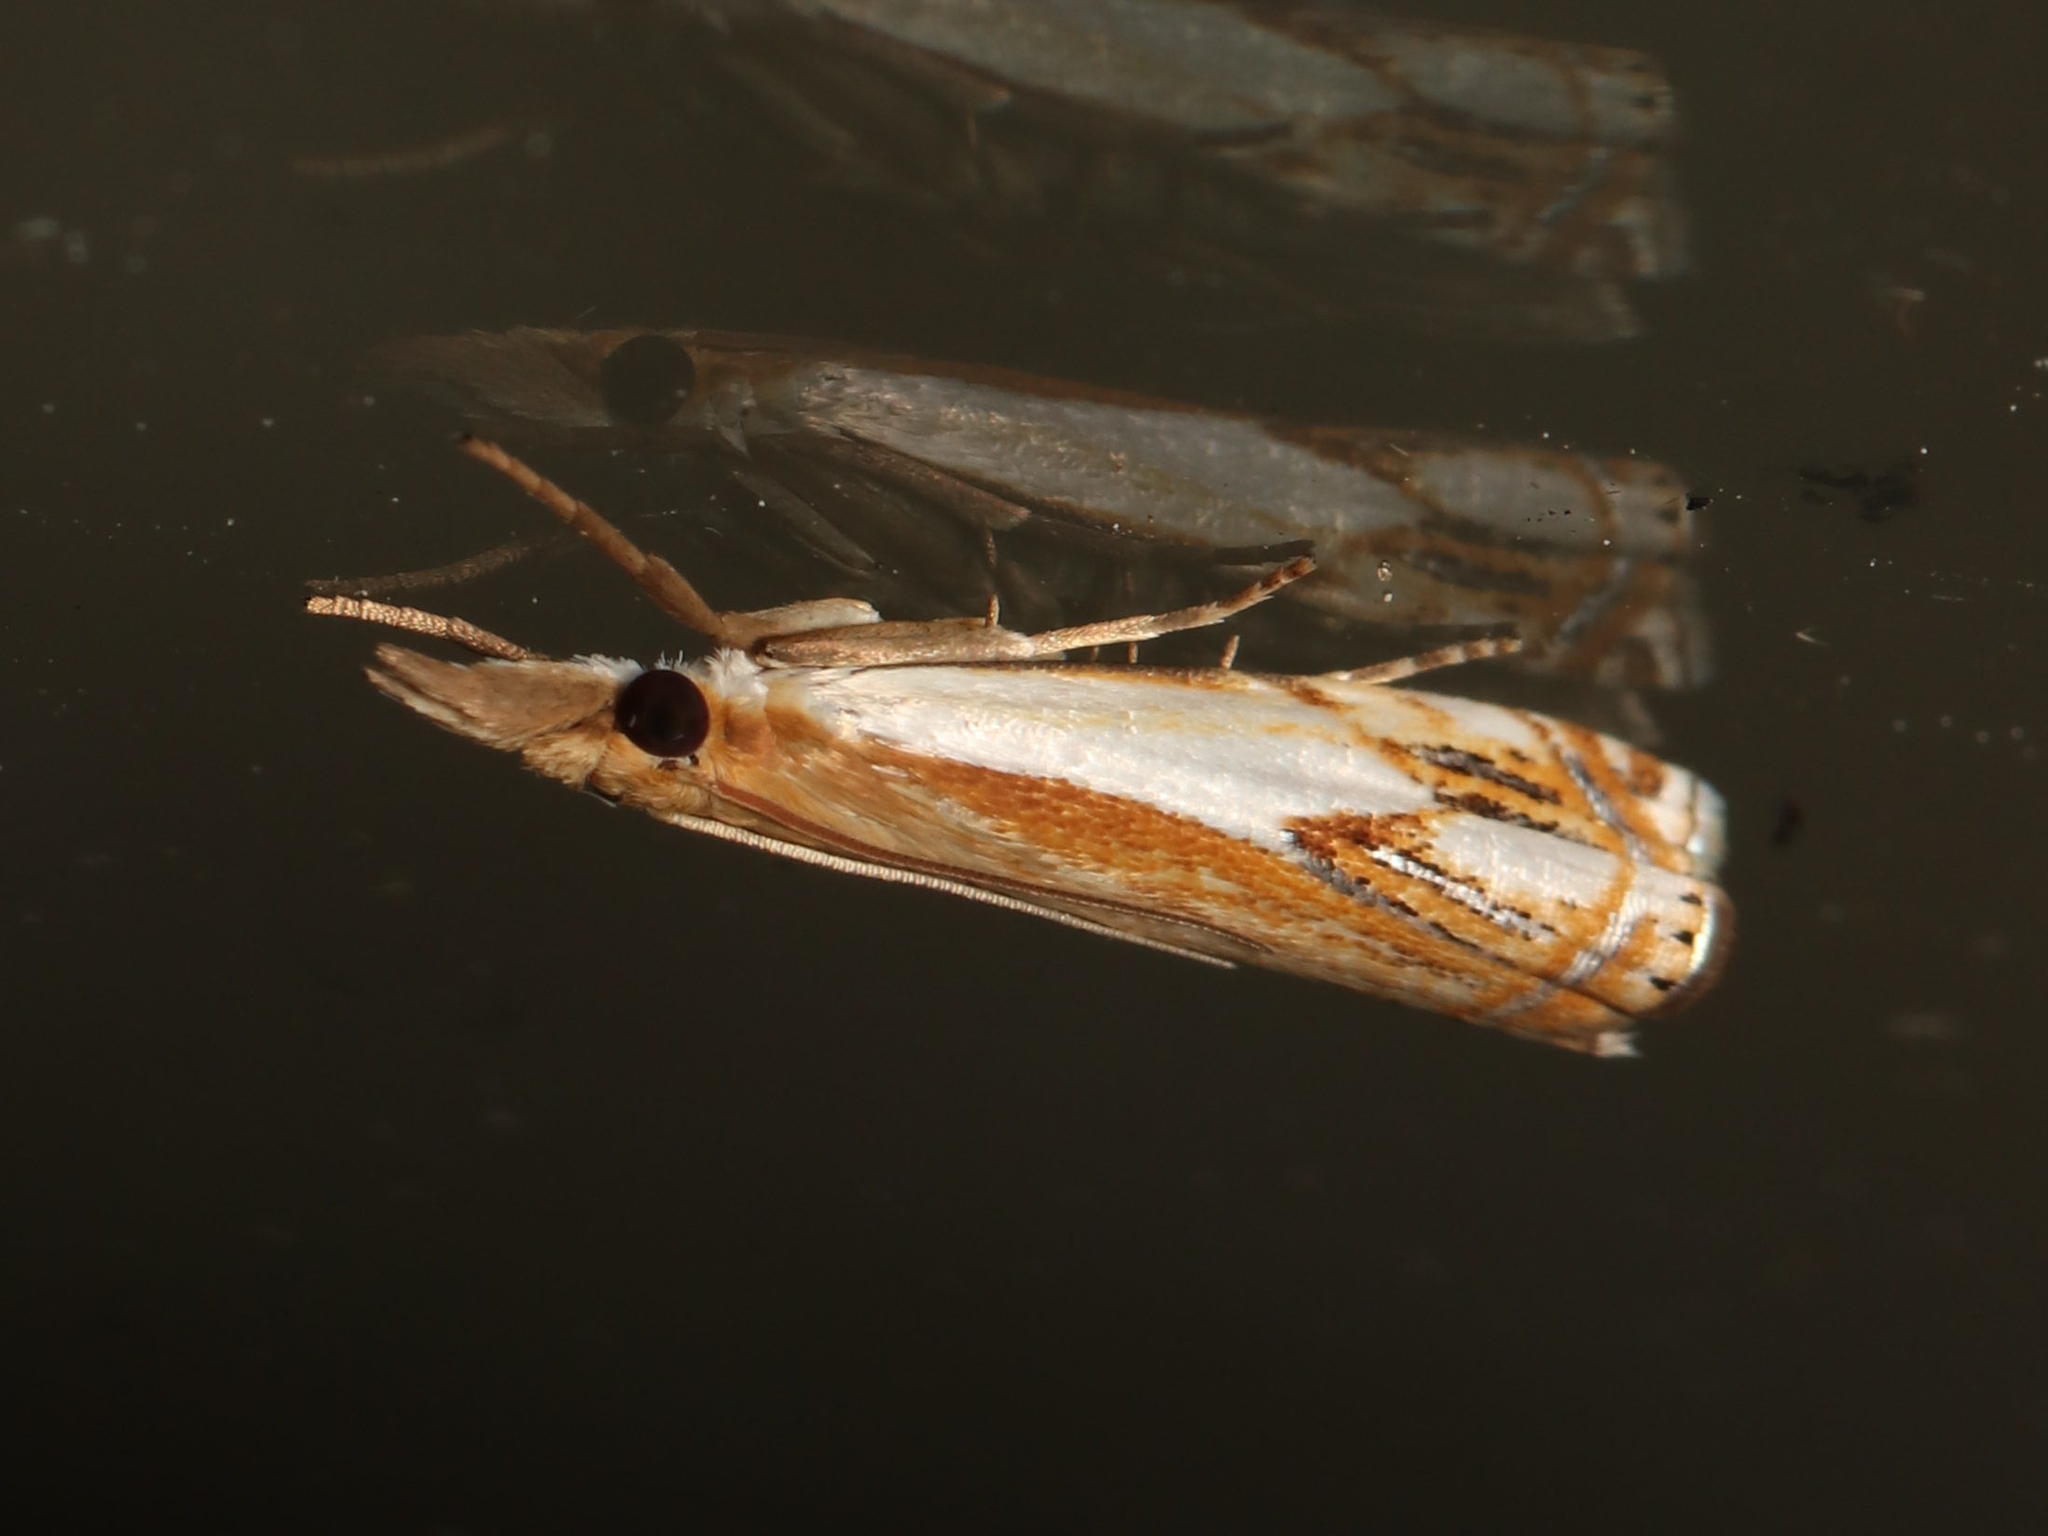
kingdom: Animalia
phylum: Arthropoda
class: Insecta
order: Lepidoptera
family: Crambidae
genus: Crambus
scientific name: Crambus agitatellus
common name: Double-banded grass-veneer
